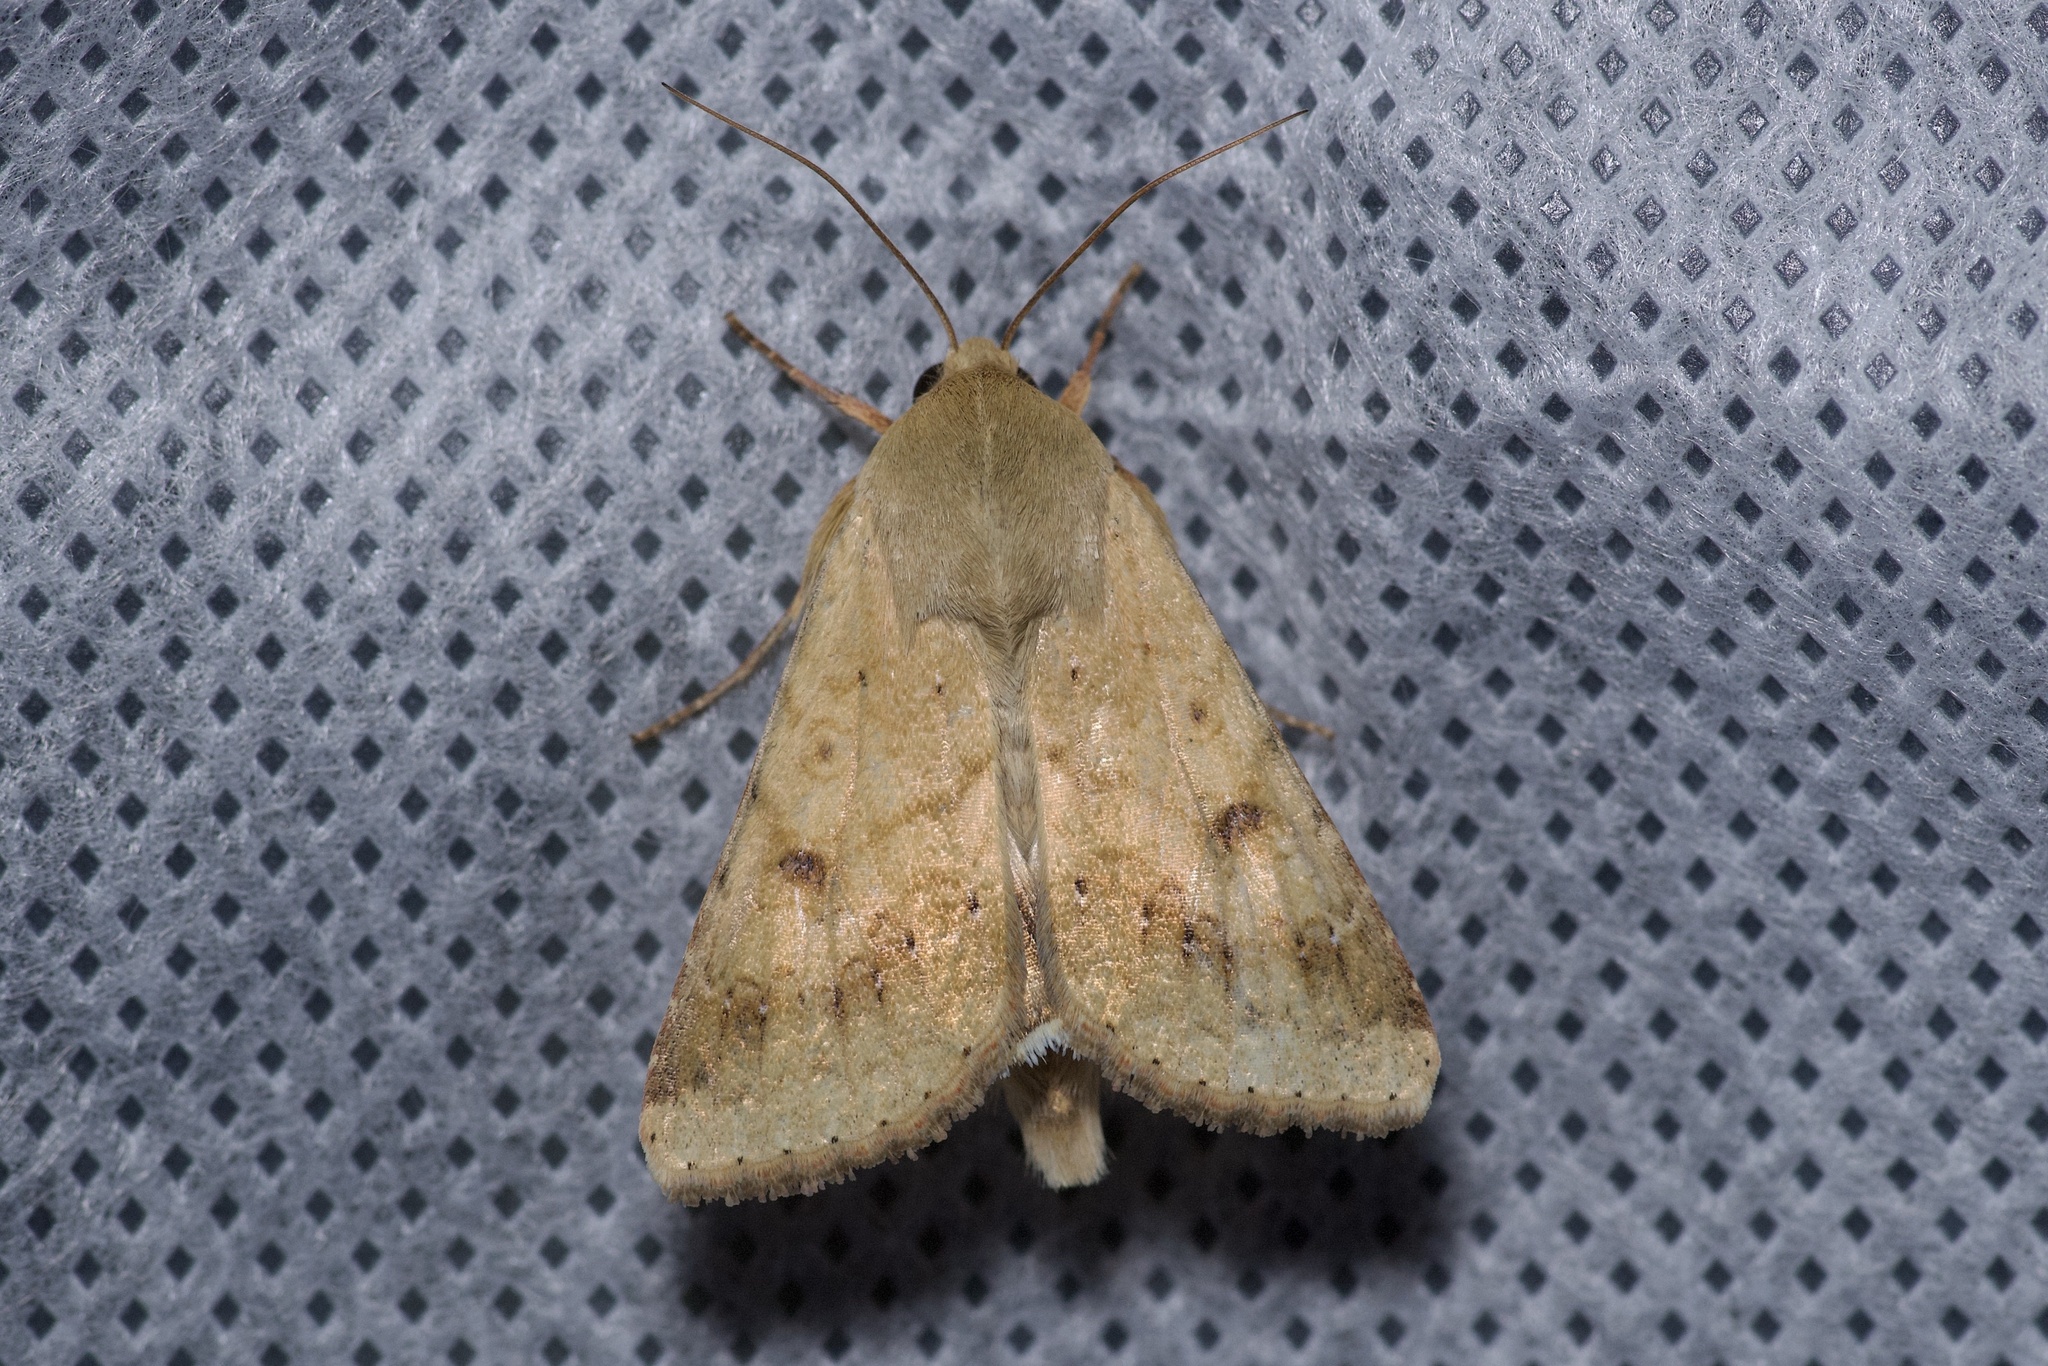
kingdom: Animalia
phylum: Arthropoda
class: Insecta
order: Lepidoptera
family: Noctuidae
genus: Helicoverpa
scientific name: Helicoverpa zea
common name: Bollworm
